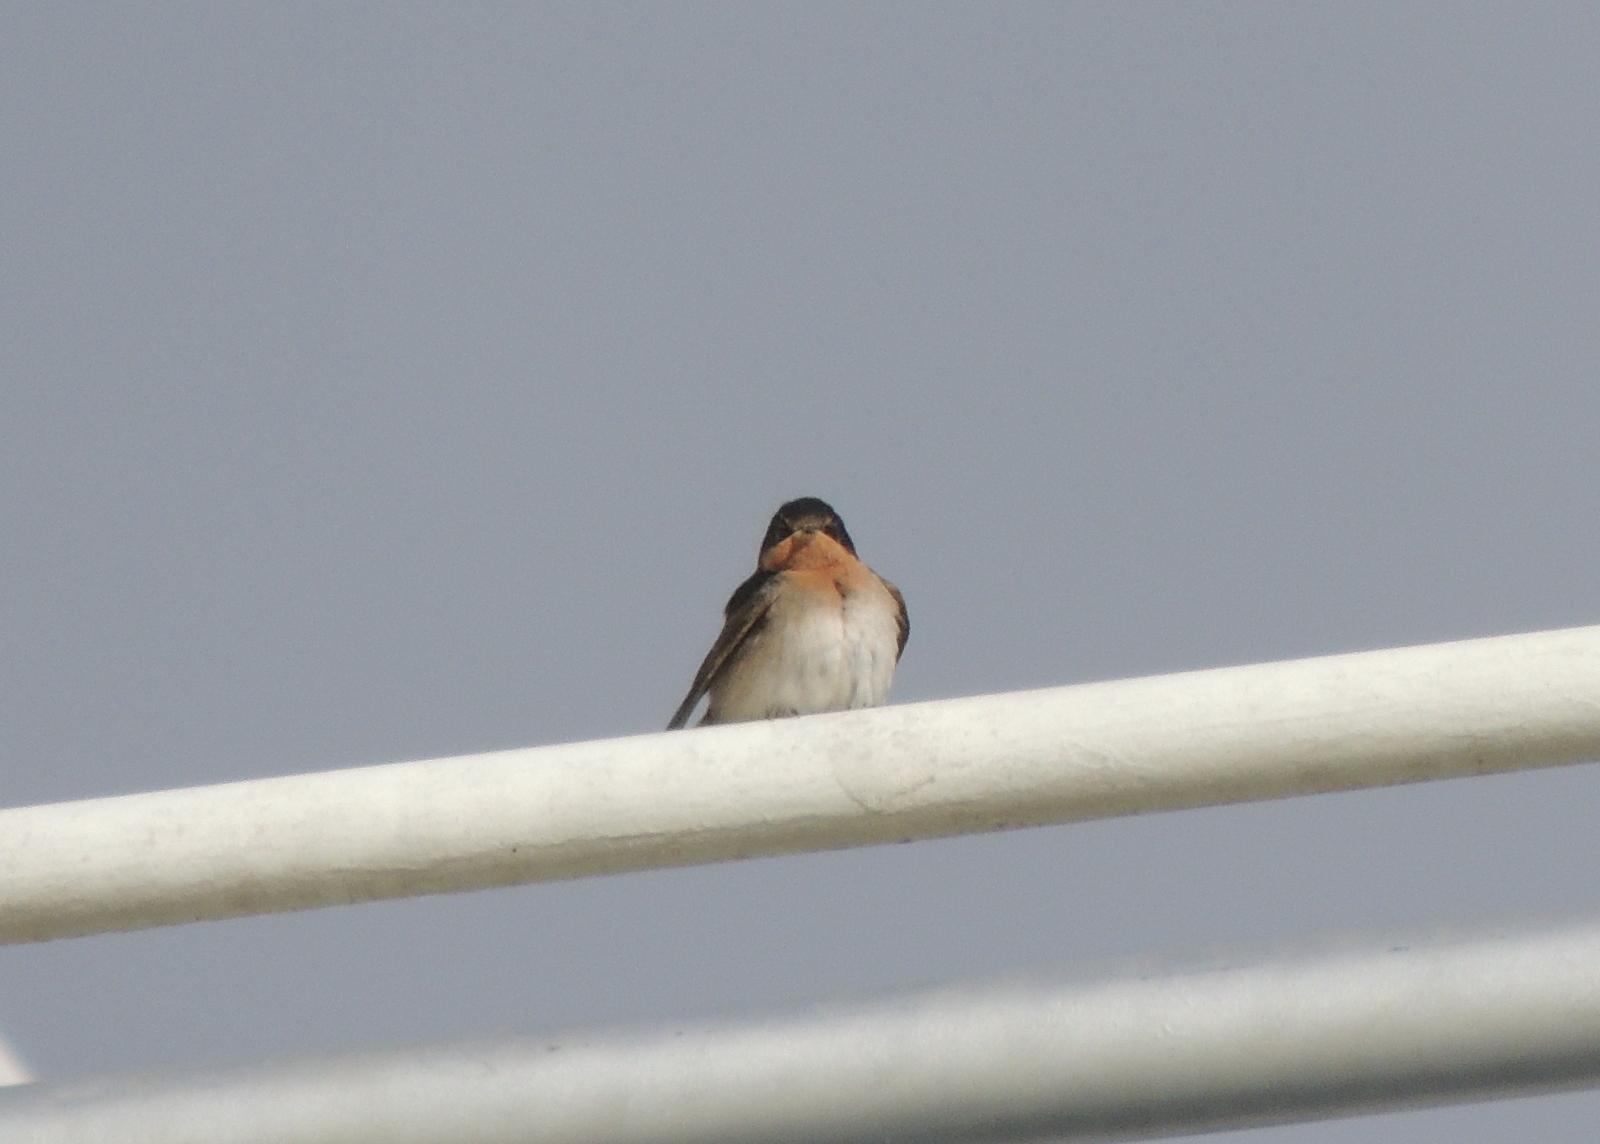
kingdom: Animalia
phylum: Chordata
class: Aves
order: Passeriformes
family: Hirundinidae
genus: Hirundo
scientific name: Hirundo neoxena
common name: Welcome swallow
